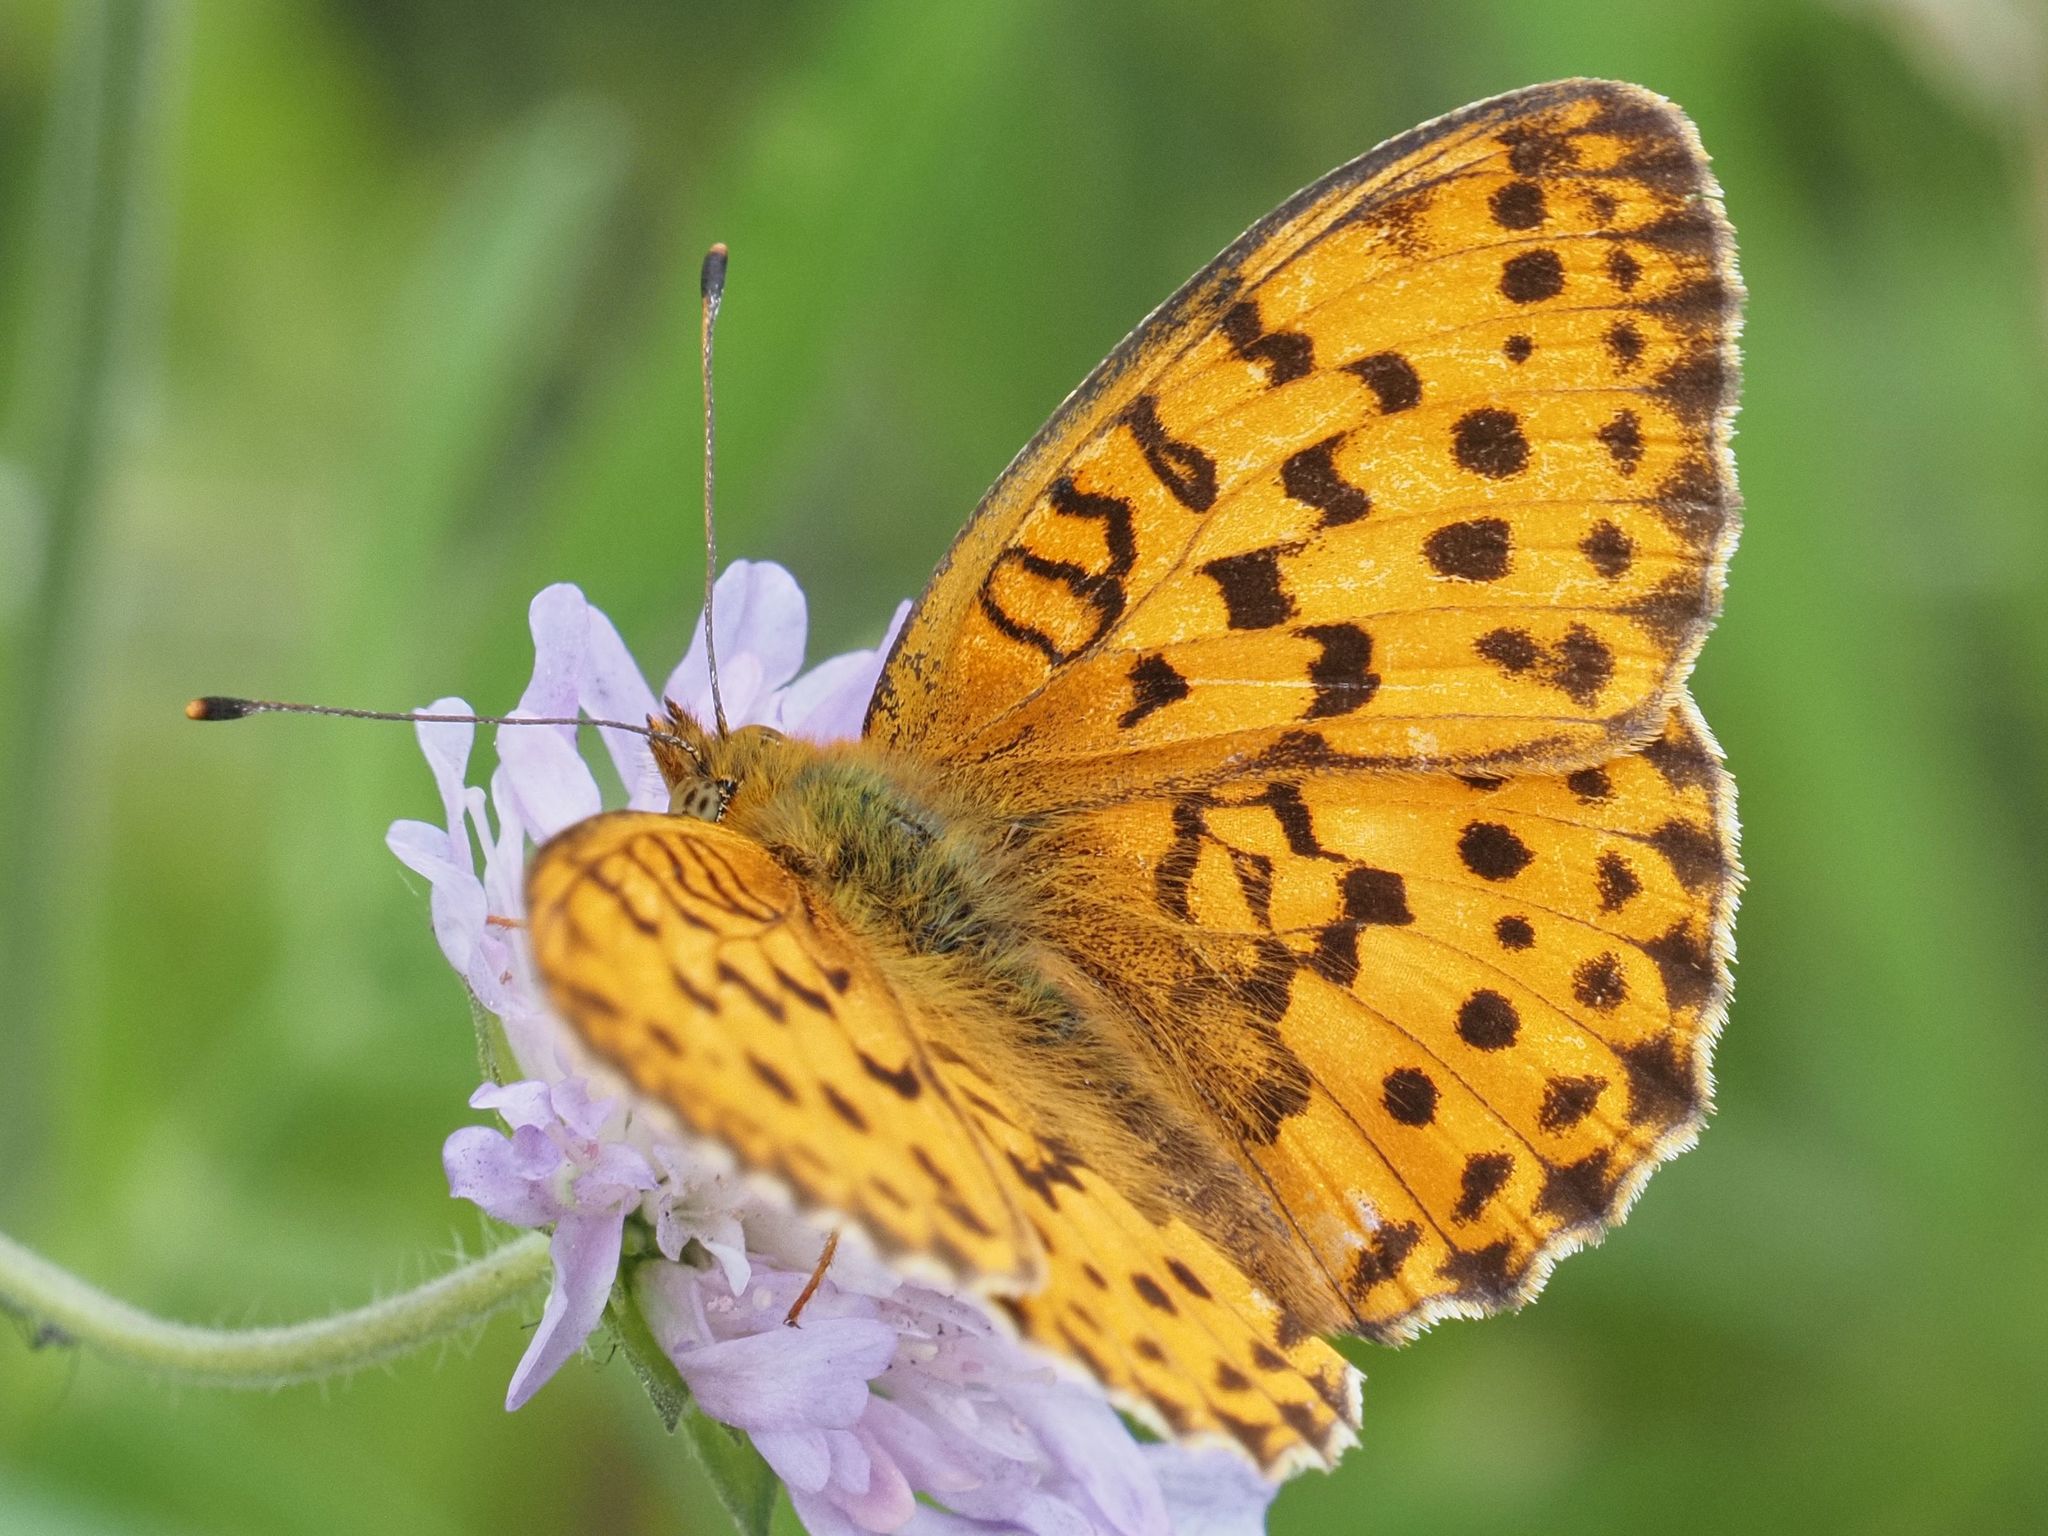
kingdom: Animalia
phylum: Arthropoda
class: Insecta
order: Lepidoptera
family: Nymphalidae
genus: Brenthis
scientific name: Brenthis daphne
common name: Marbled fritillary
